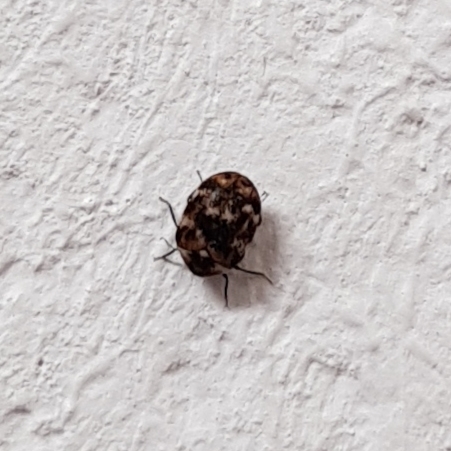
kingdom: Animalia
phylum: Arthropoda
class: Insecta
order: Coleoptera
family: Dermestidae
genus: Anthrenus
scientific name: Anthrenus verbasci
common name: Varied carpet beetle
